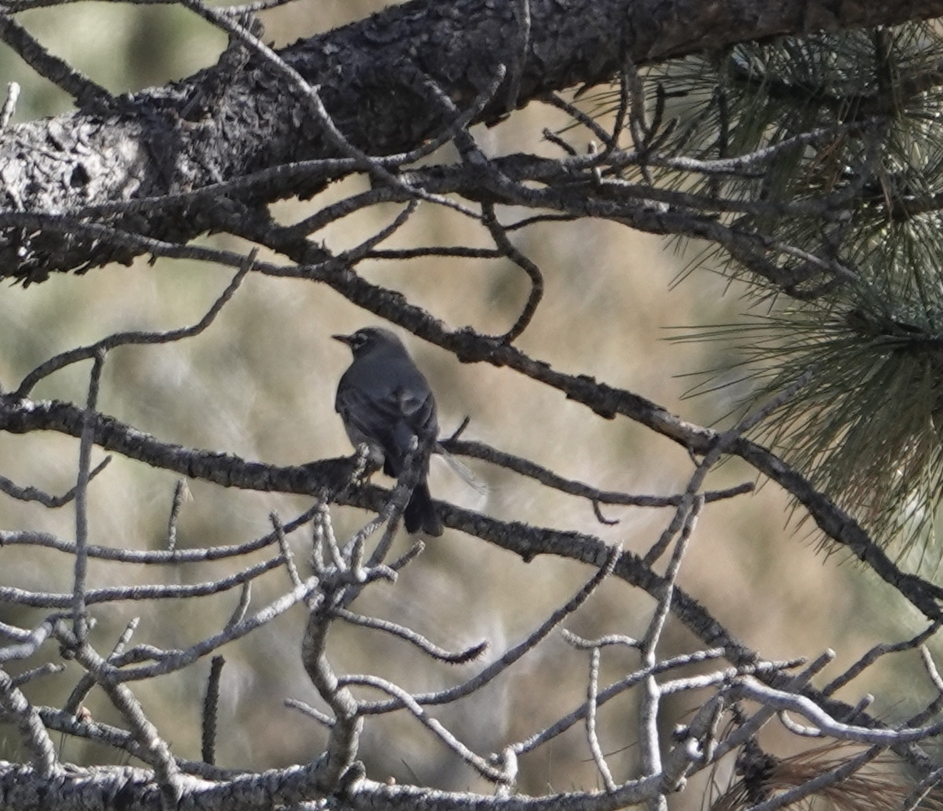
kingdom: Animalia
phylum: Chordata
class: Aves
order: Passeriformes
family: Turdidae
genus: Turdus
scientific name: Turdus migratorius
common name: American robin
